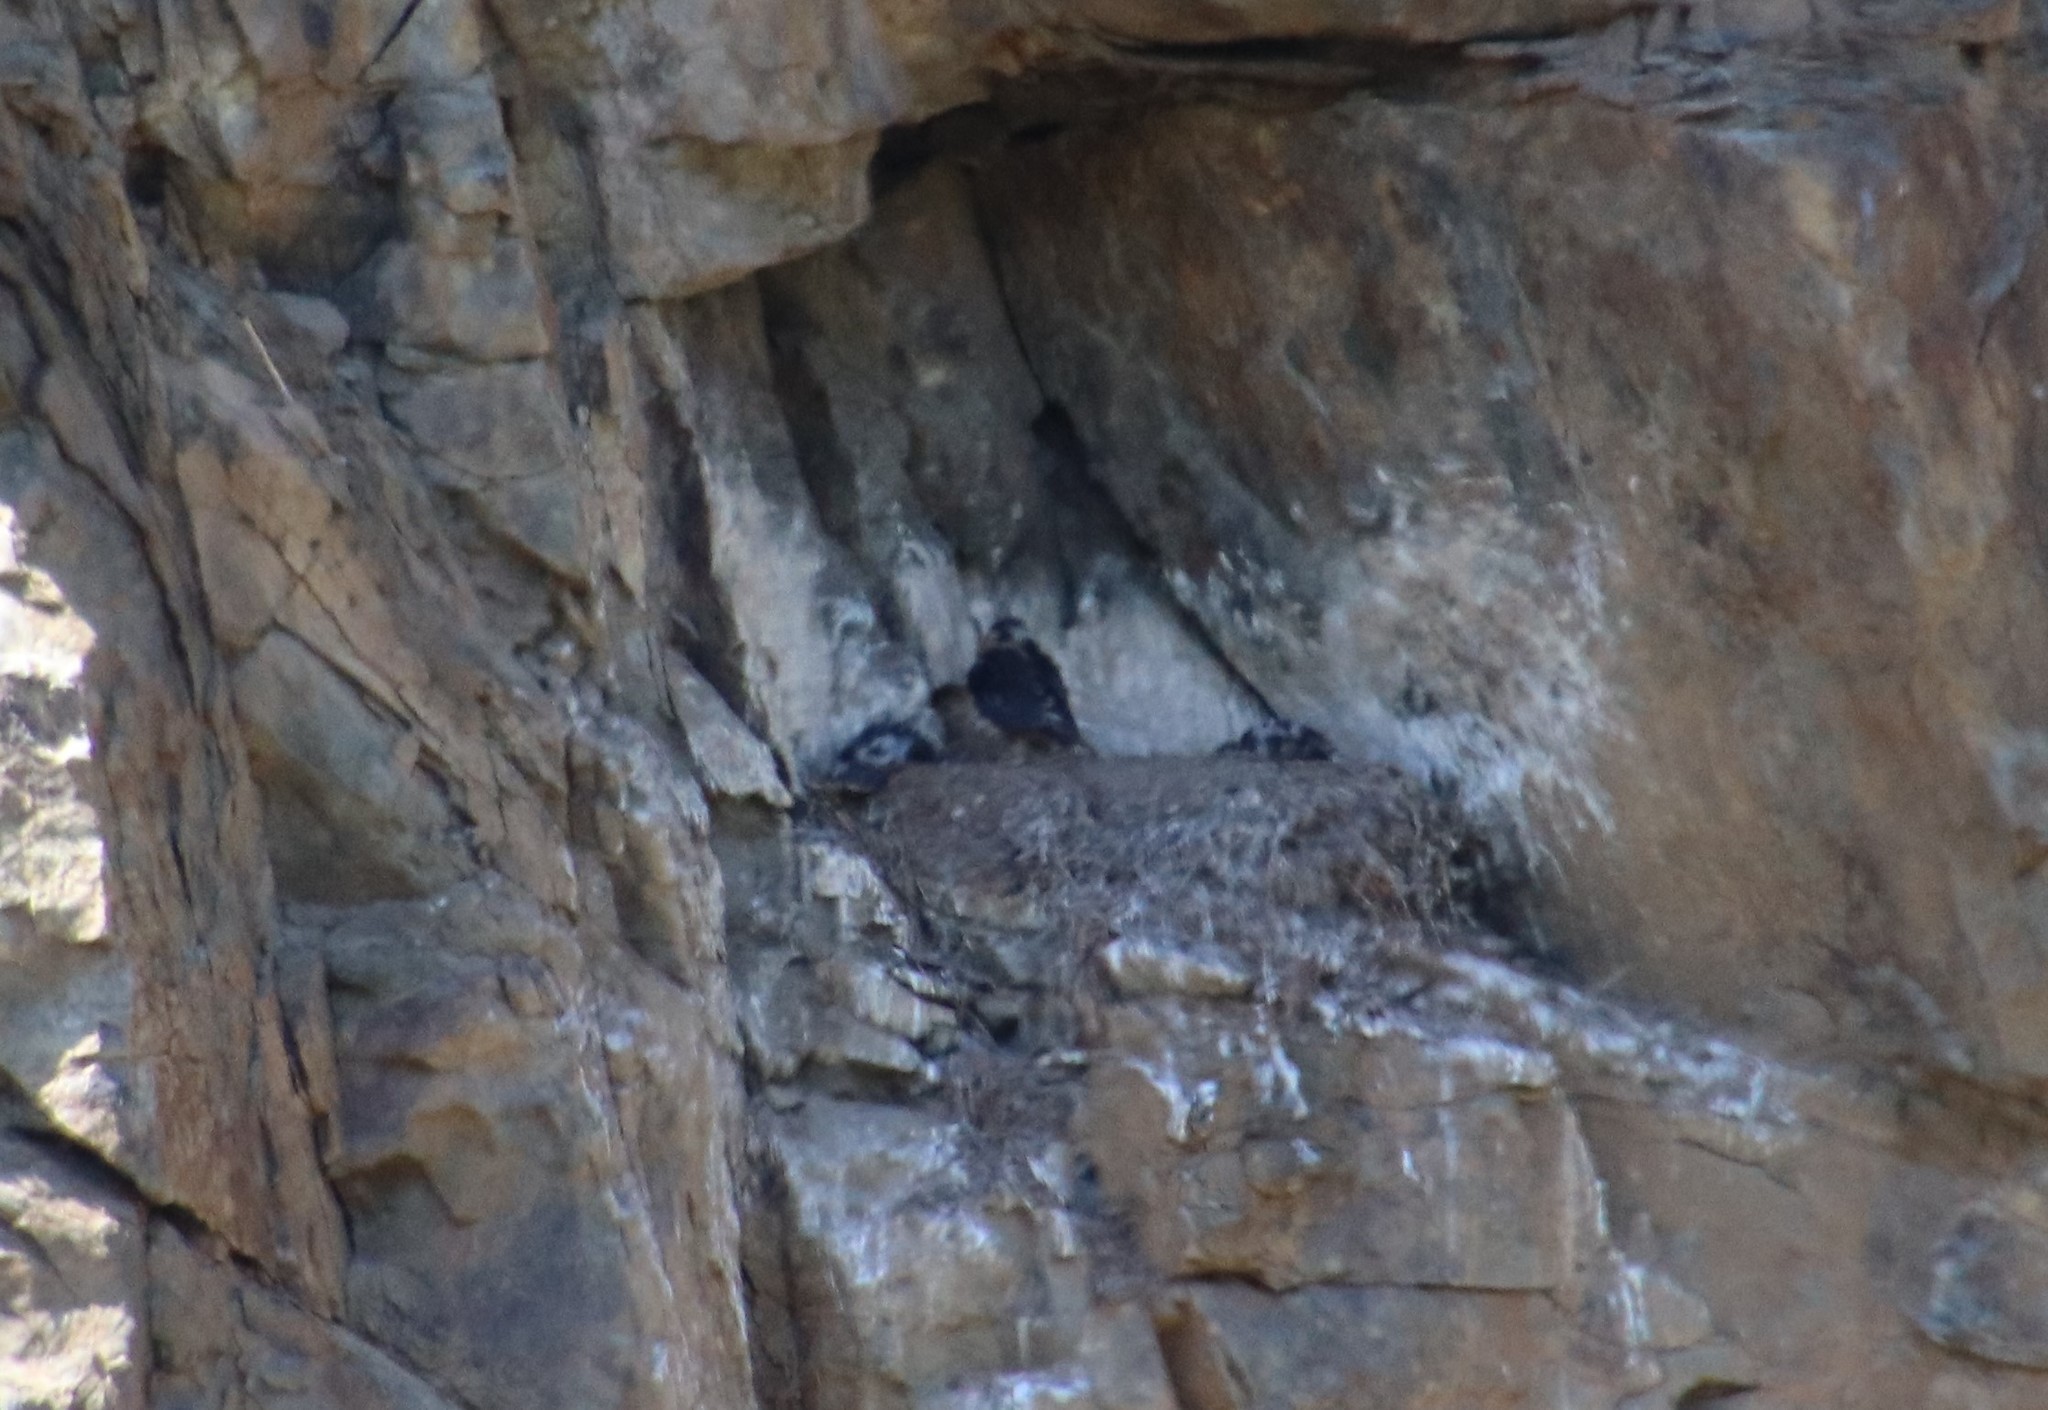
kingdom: Animalia
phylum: Chordata
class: Aves
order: Falconiformes
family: Falconidae
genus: Falco
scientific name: Falco peregrinus
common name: Peregrine falcon
